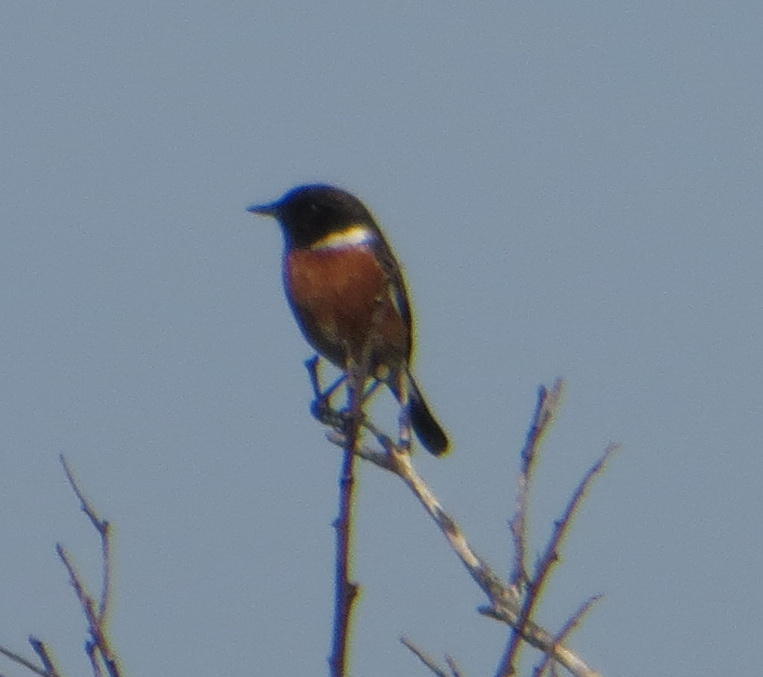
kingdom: Animalia
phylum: Chordata
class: Aves
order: Passeriformes
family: Muscicapidae
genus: Saxicola
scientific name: Saxicola torquatus
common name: African stonechat
